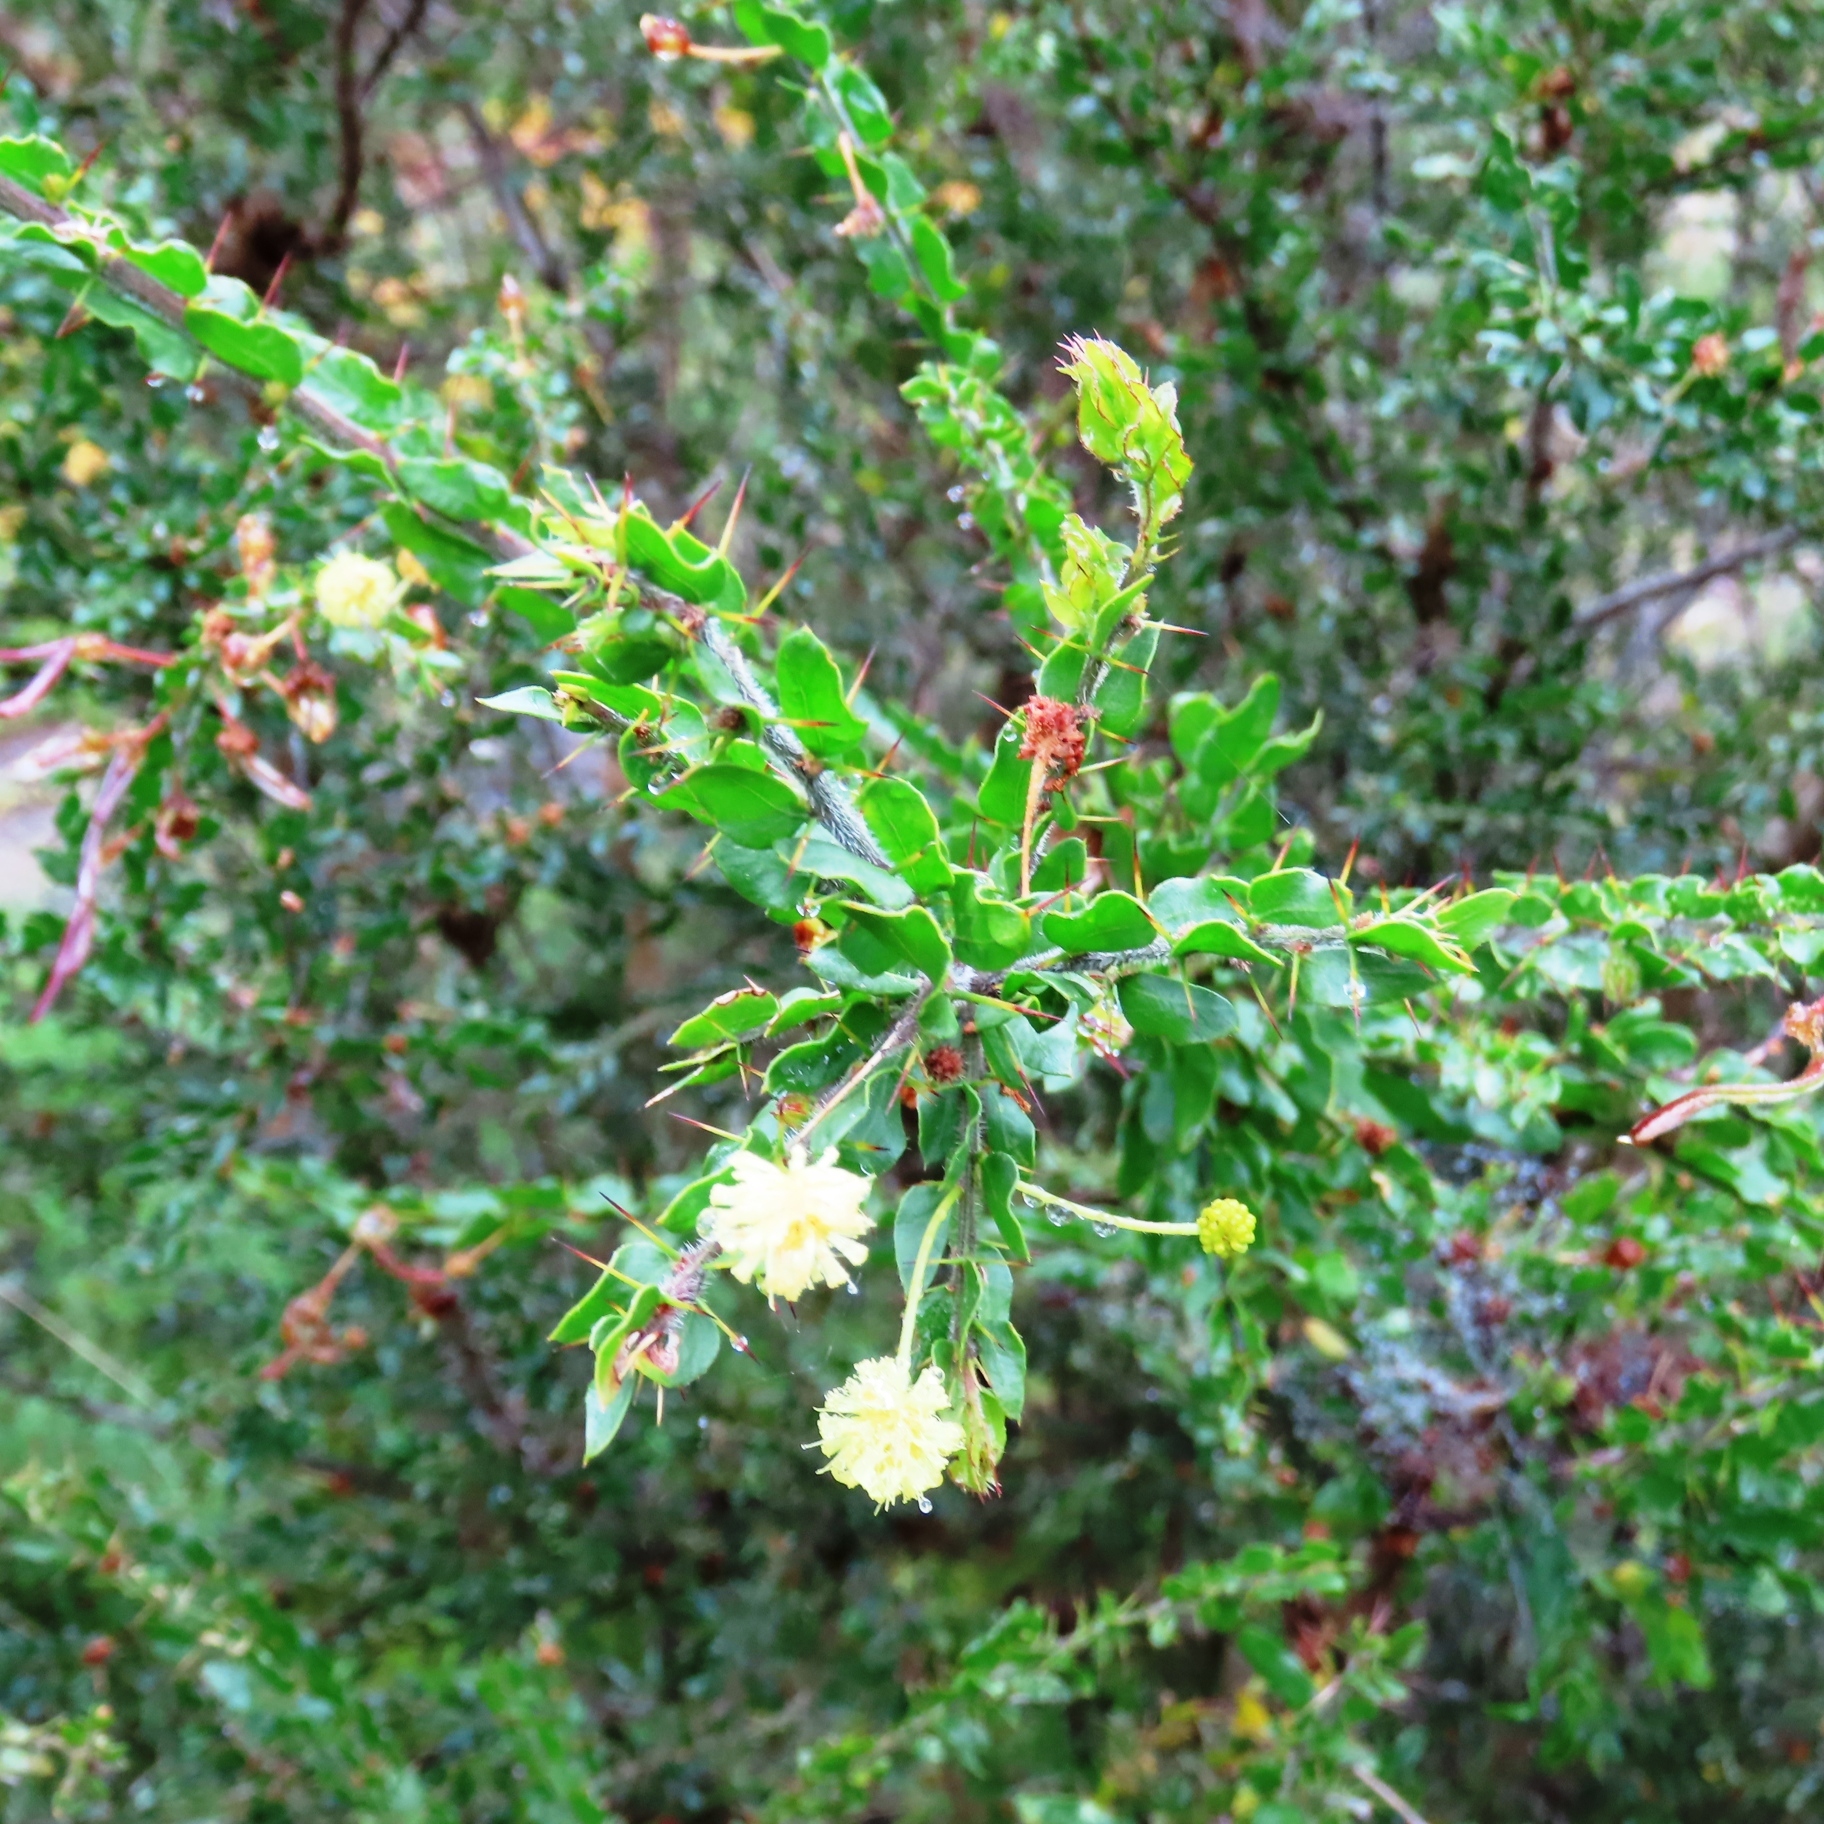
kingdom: Plantae
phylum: Tracheophyta
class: Magnoliopsida
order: Fabales
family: Fabaceae
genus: Acacia
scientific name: Acacia paradoxa
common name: Paradox acacia
